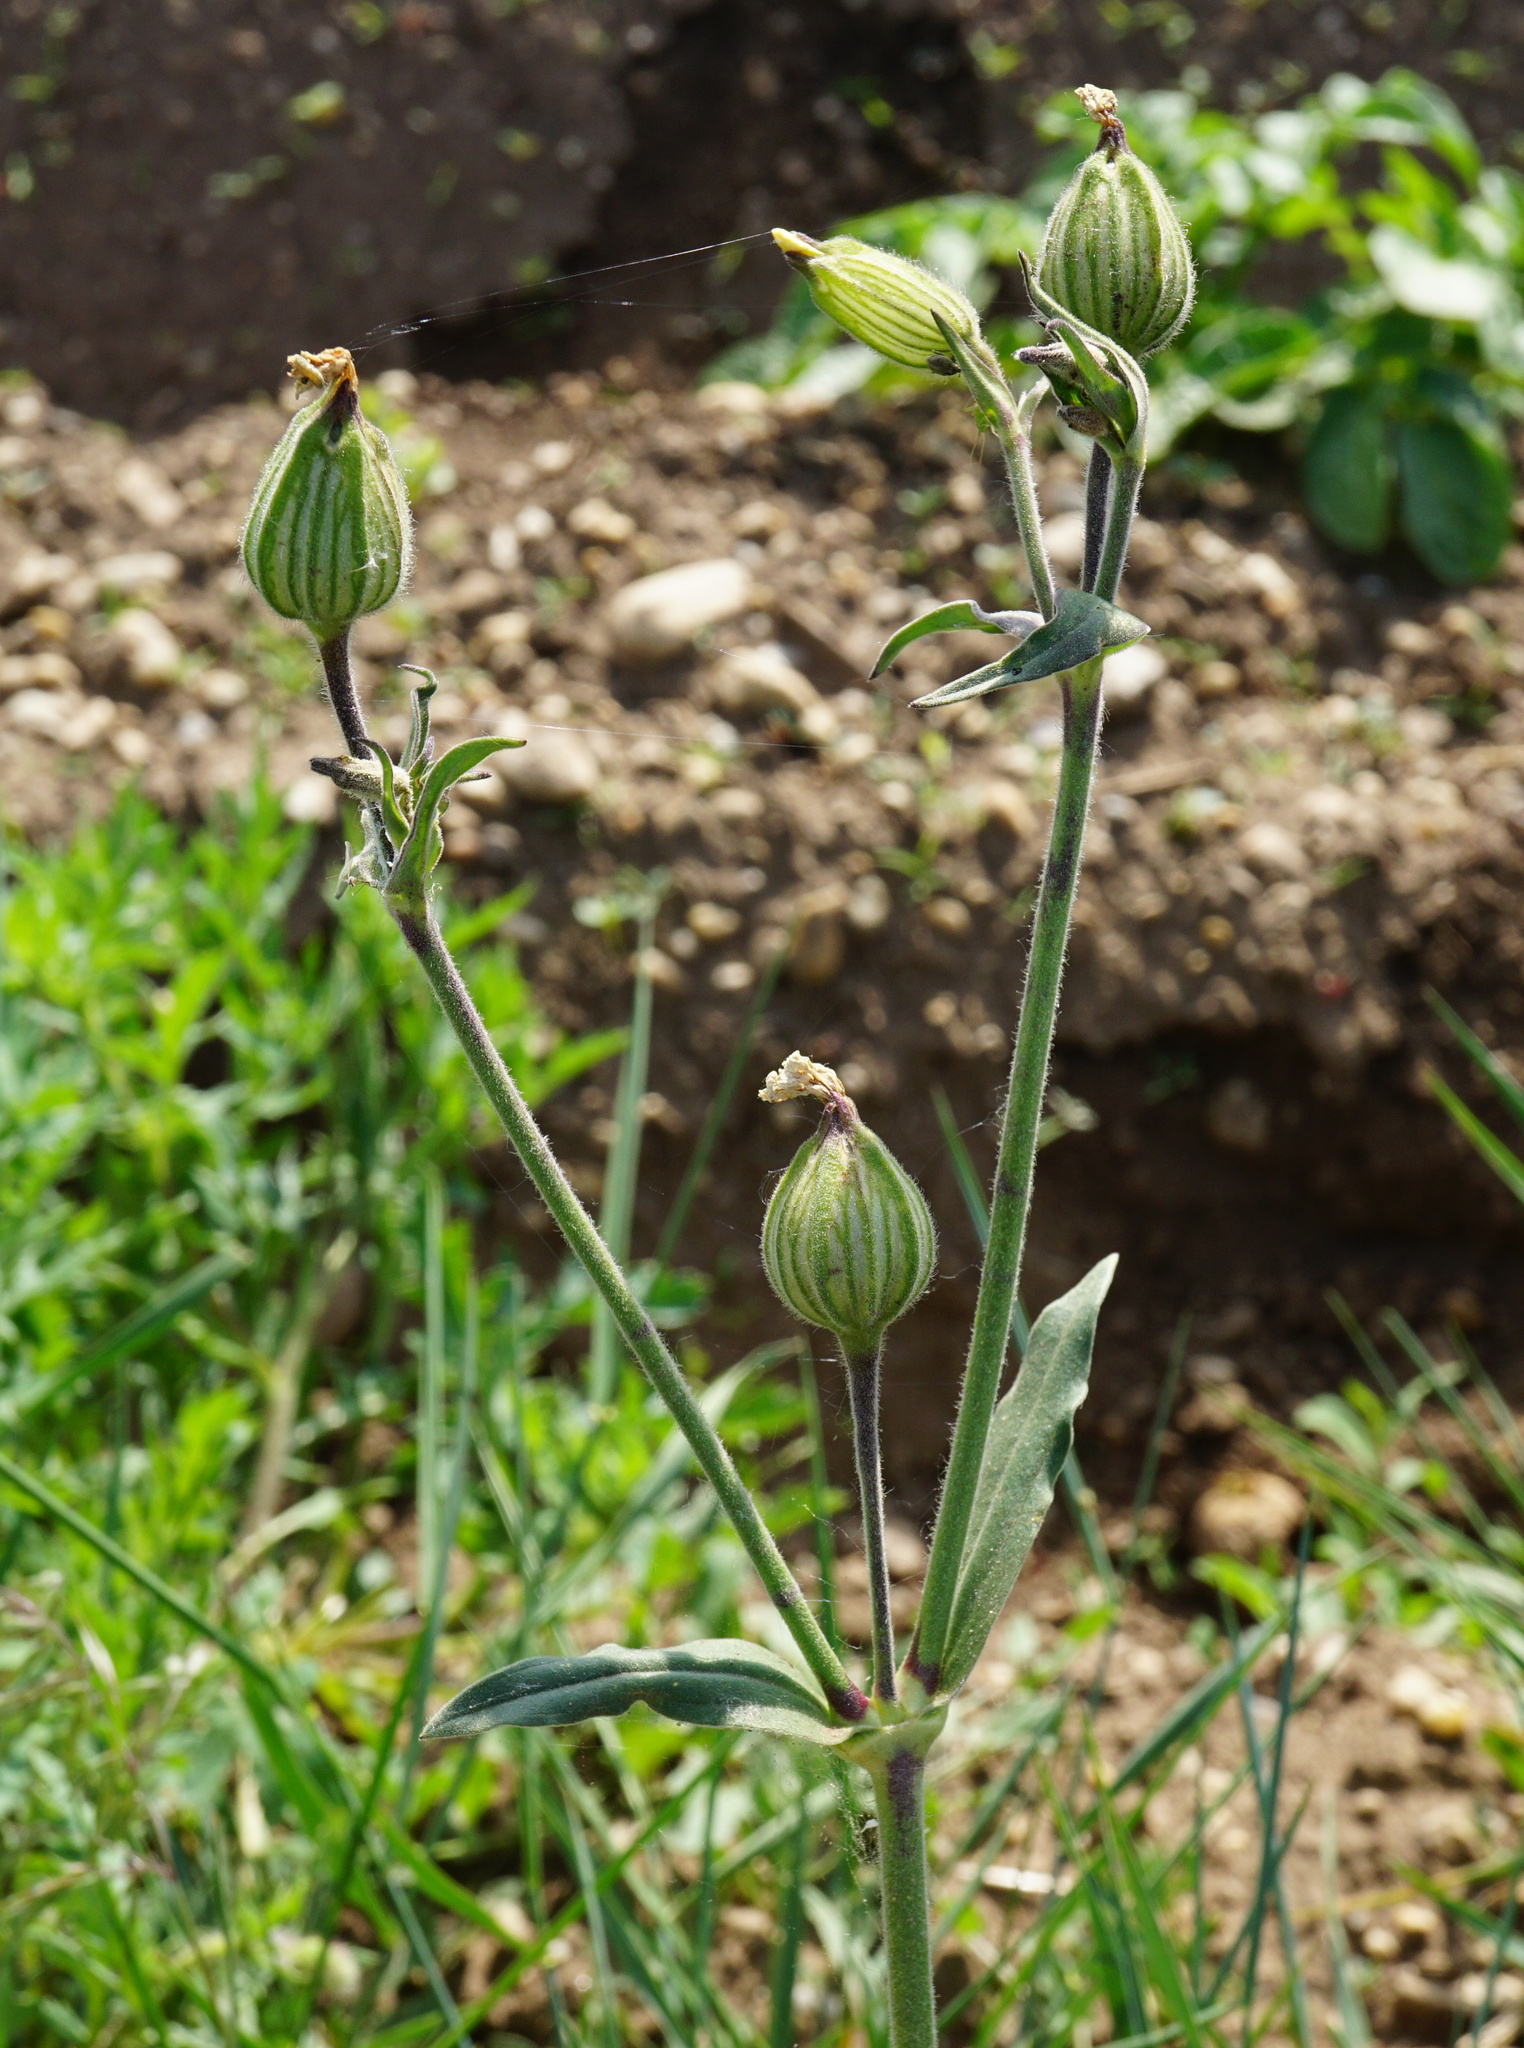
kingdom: Plantae
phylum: Tracheophyta
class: Magnoliopsida
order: Caryophyllales
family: Caryophyllaceae
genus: Silene
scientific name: Silene latifolia
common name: White campion
